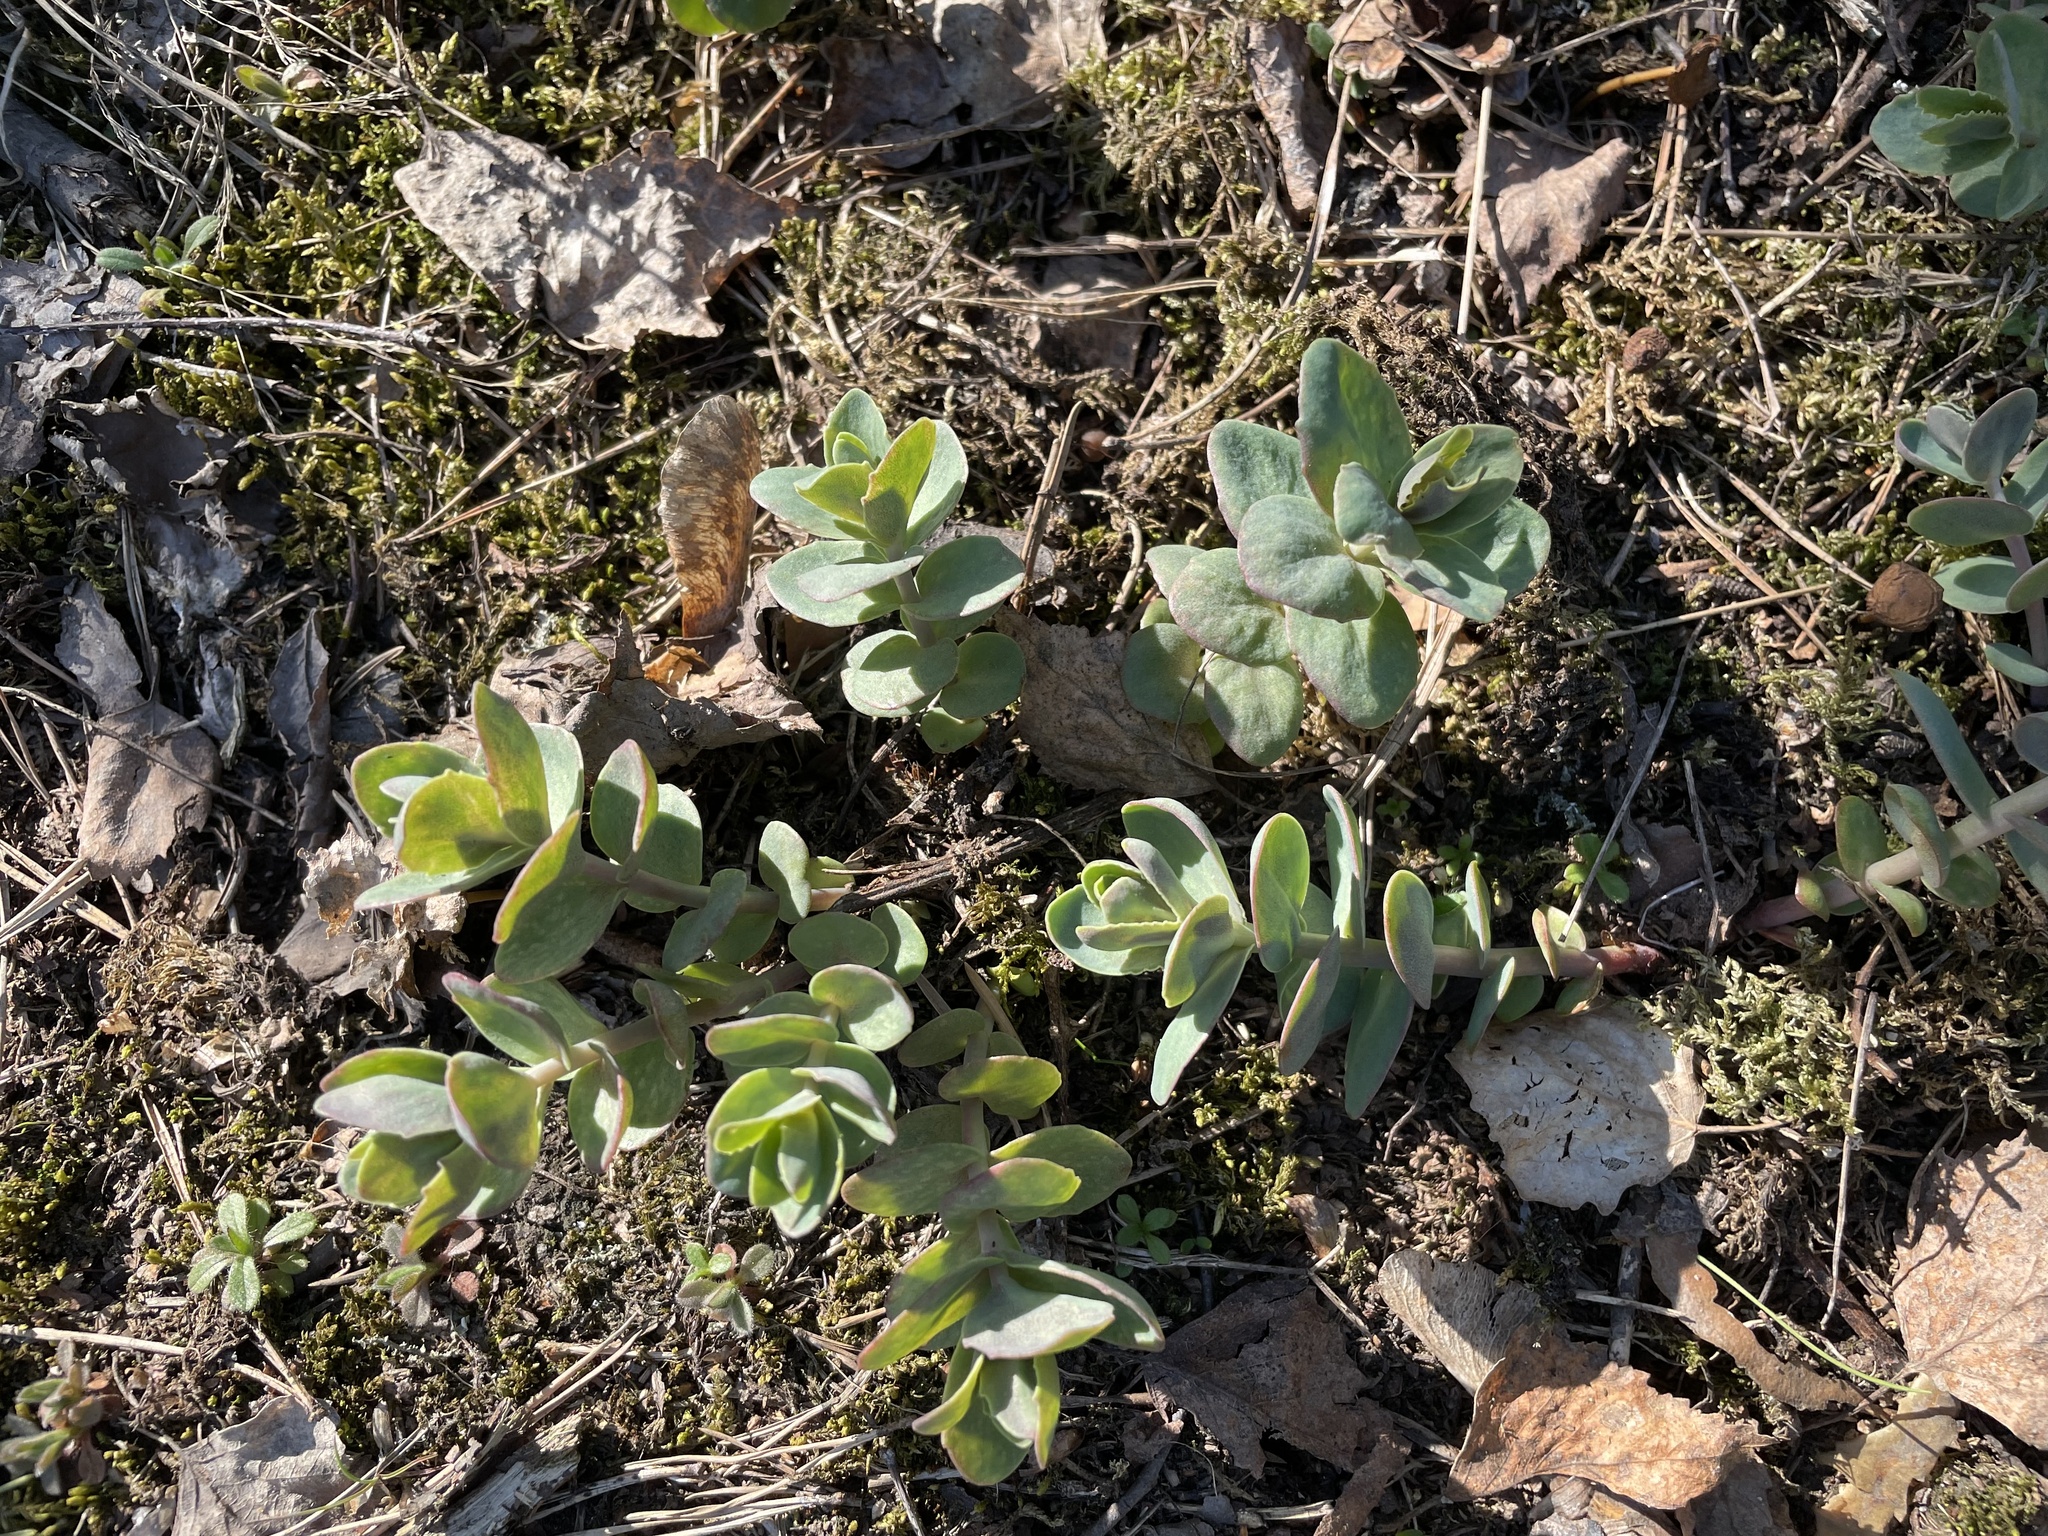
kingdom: Plantae
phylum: Tracheophyta
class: Magnoliopsida
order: Saxifragales
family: Crassulaceae
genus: Hylotelephium
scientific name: Hylotelephium maximum
